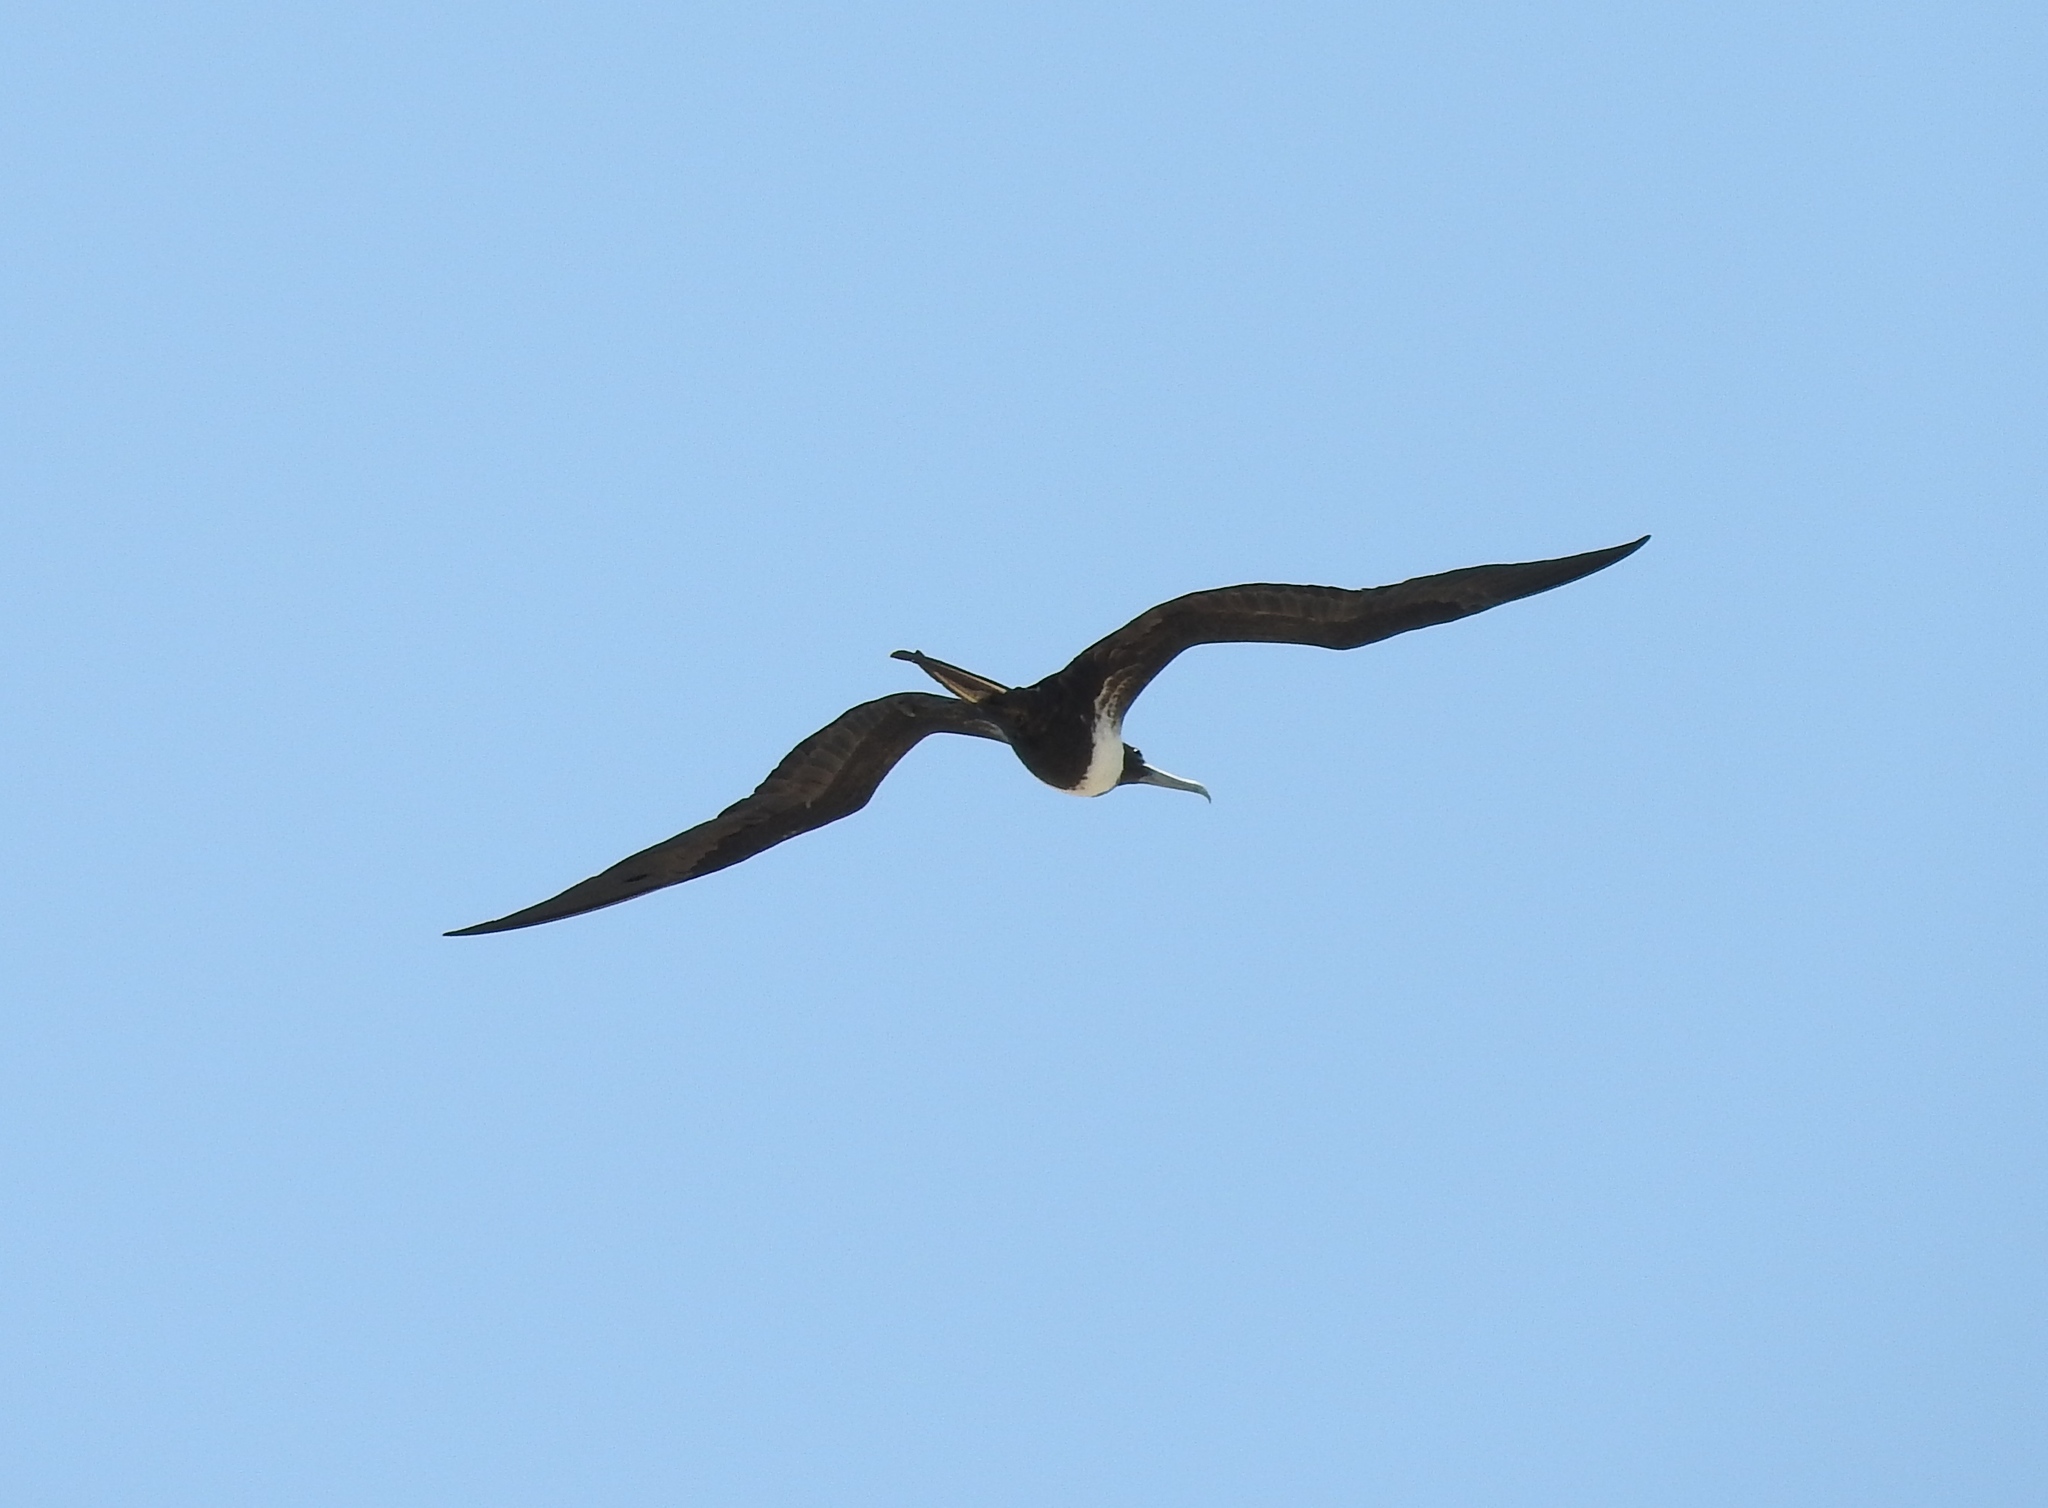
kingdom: Animalia
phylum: Chordata
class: Aves
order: Suliformes
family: Fregatidae
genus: Fregata
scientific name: Fregata magnificens
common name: Magnificent frigatebird
